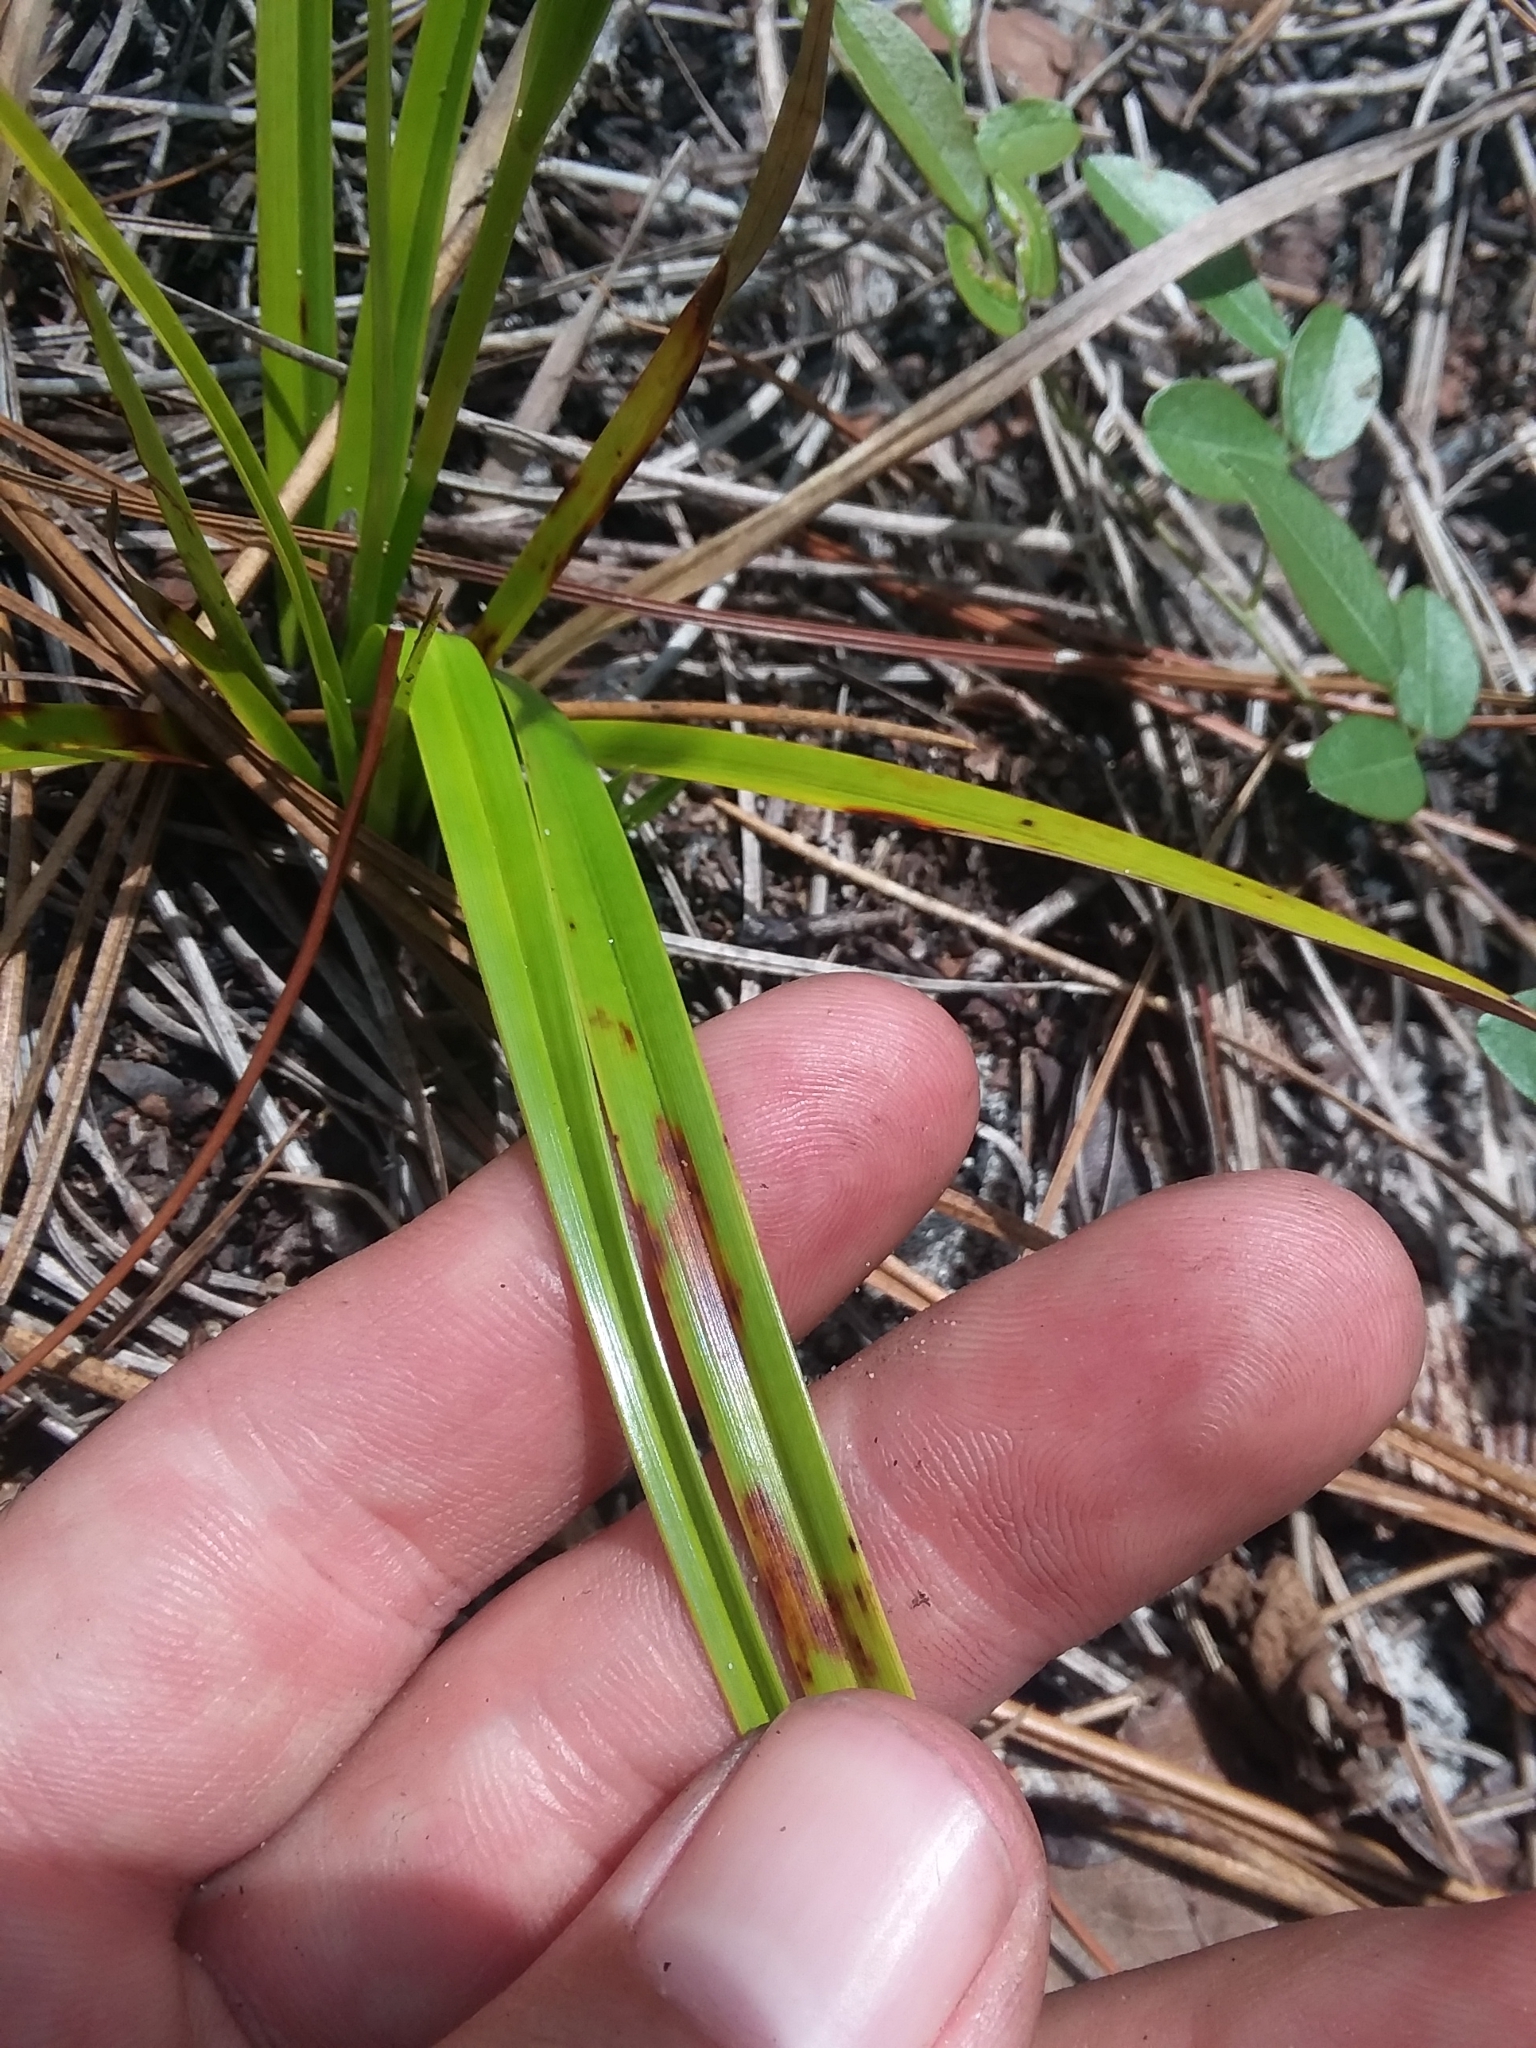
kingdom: Plantae
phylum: Tracheophyta
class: Liliopsida
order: Poales
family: Cyperaceae
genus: Rhynchospora
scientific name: Rhynchospora megalocarpa
